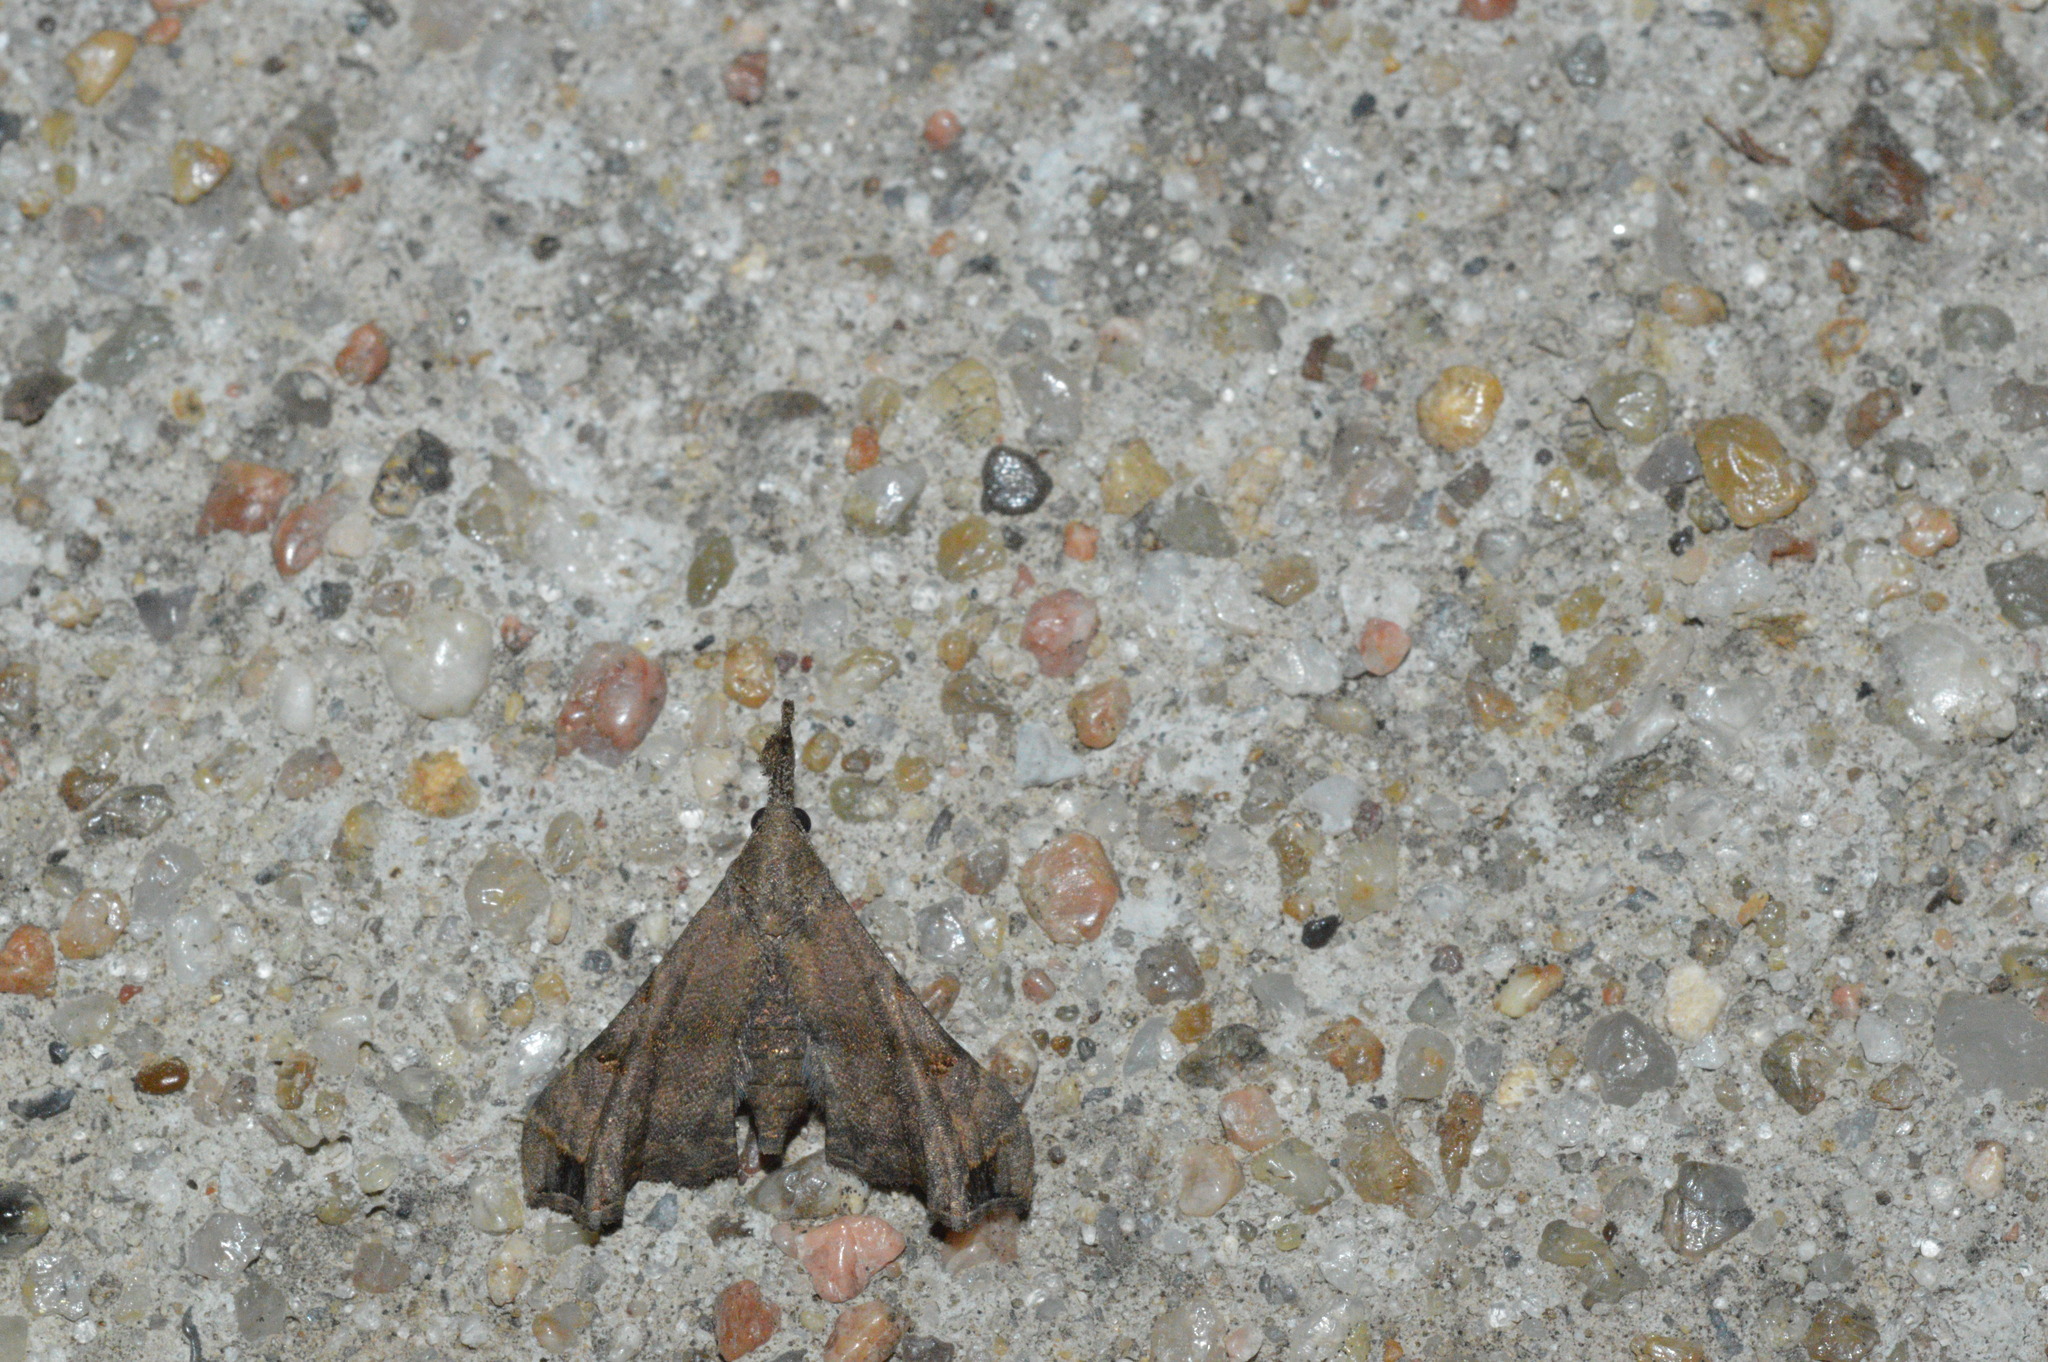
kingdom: Animalia
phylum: Arthropoda
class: Insecta
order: Lepidoptera
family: Erebidae
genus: Palthis
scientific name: Palthis asopialis
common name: Faint-spotted palthis moth
